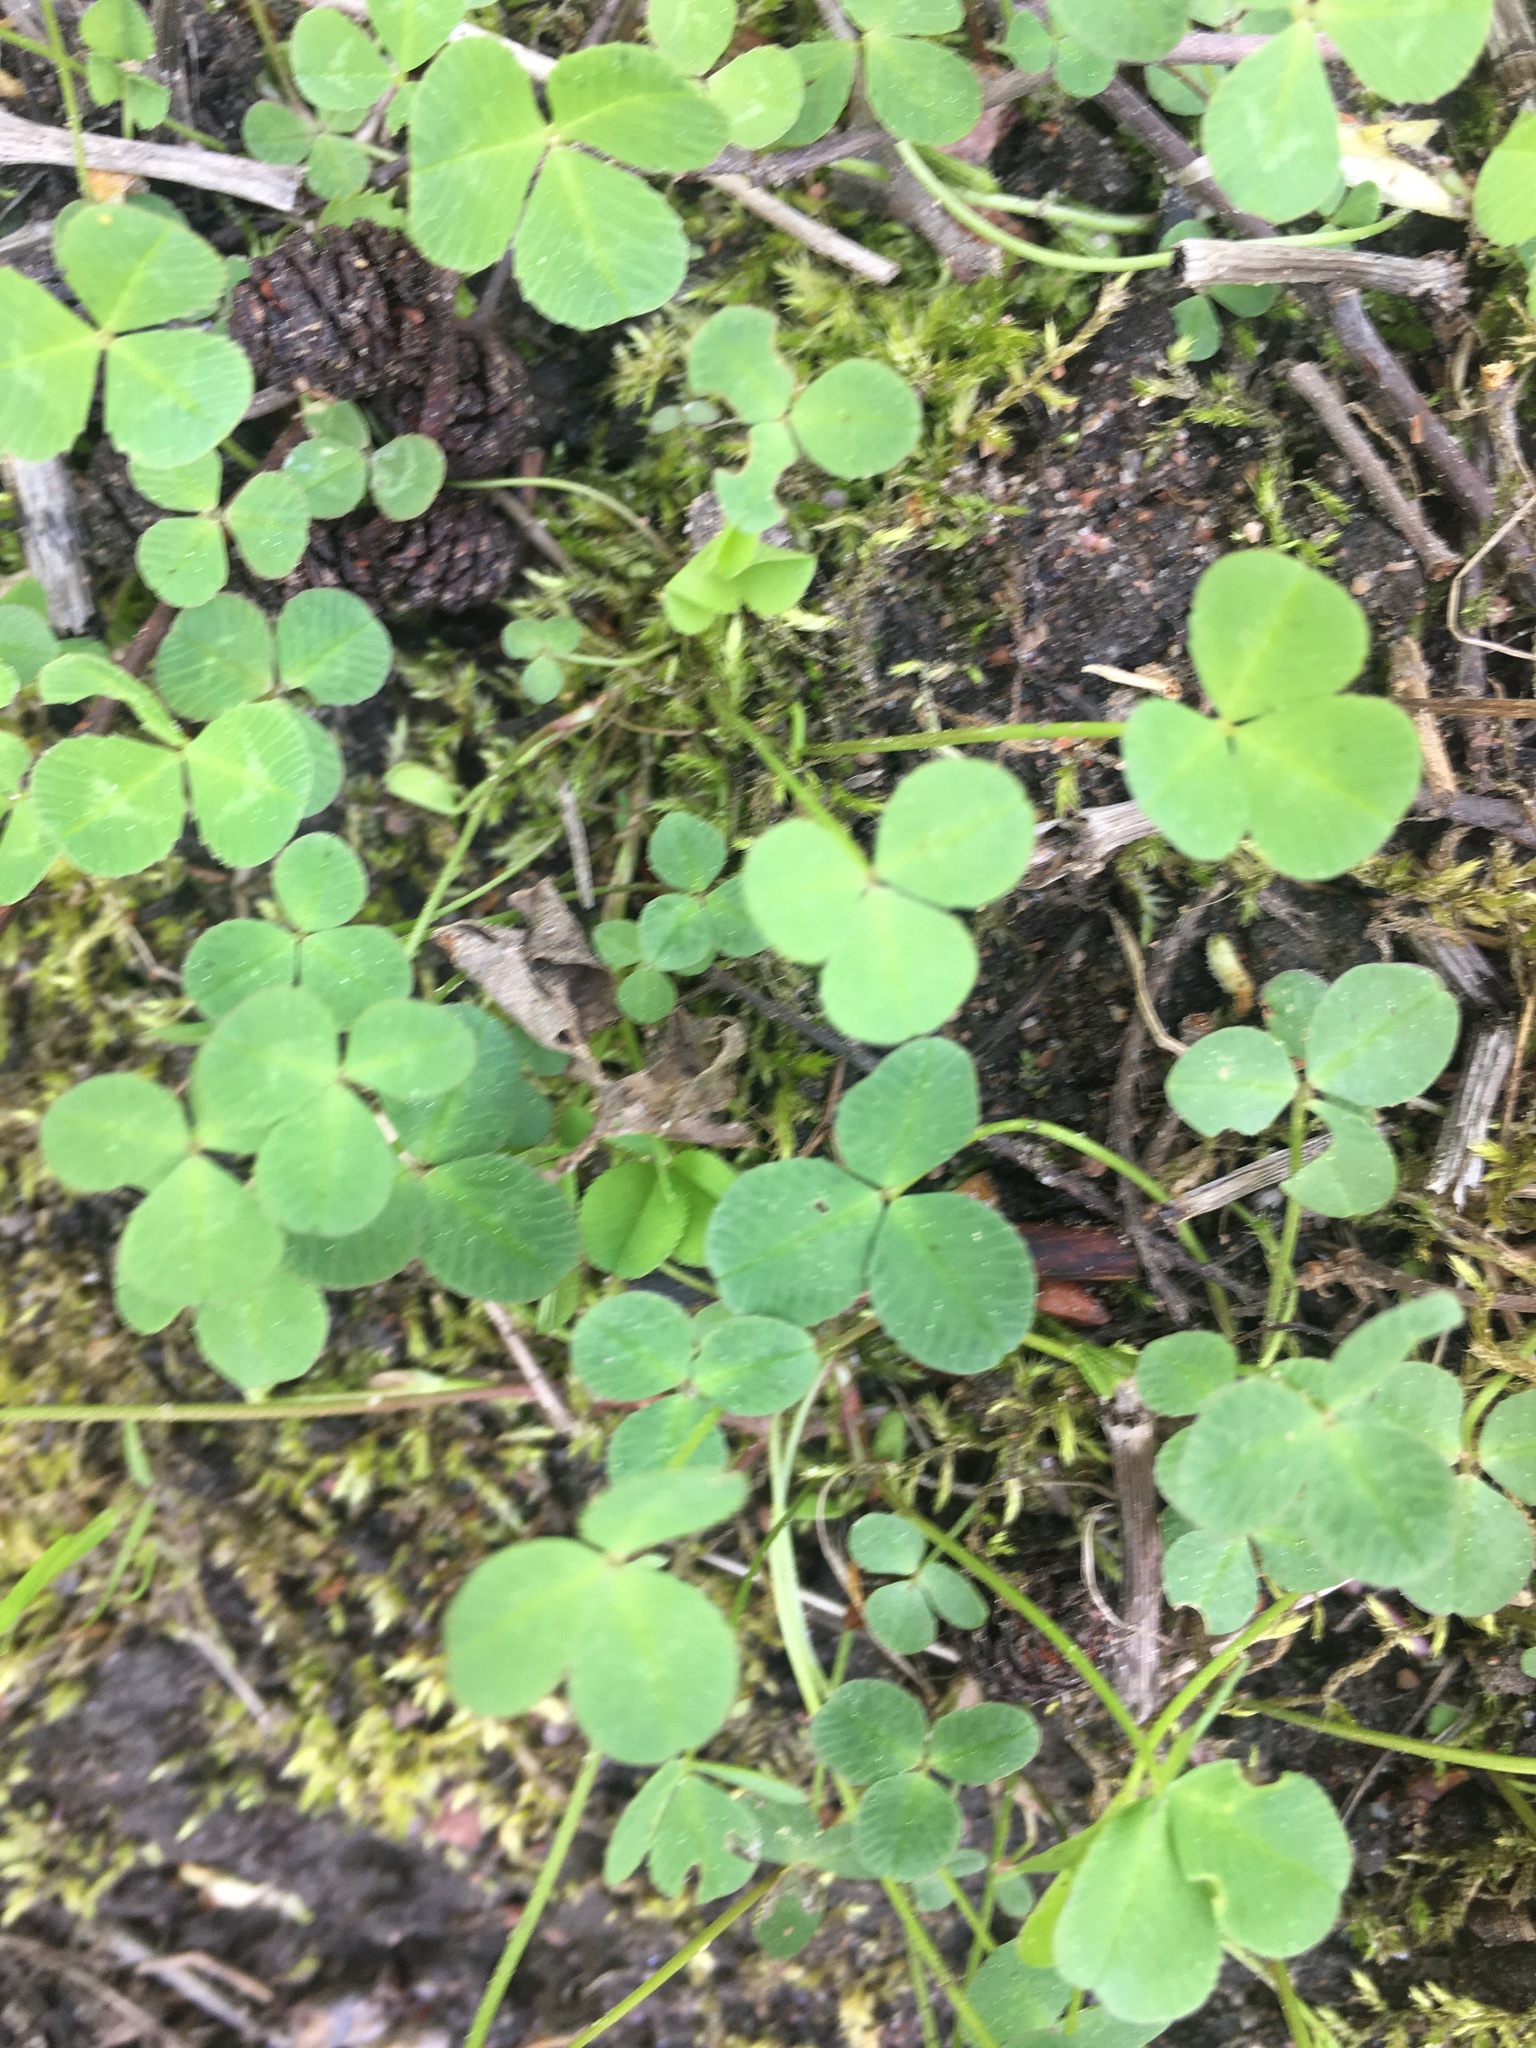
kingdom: Plantae
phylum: Tracheophyta
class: Magnoliopsida
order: Fabales
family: Fabaceae
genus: Trifolium
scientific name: Trifolium repens
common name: White clover
